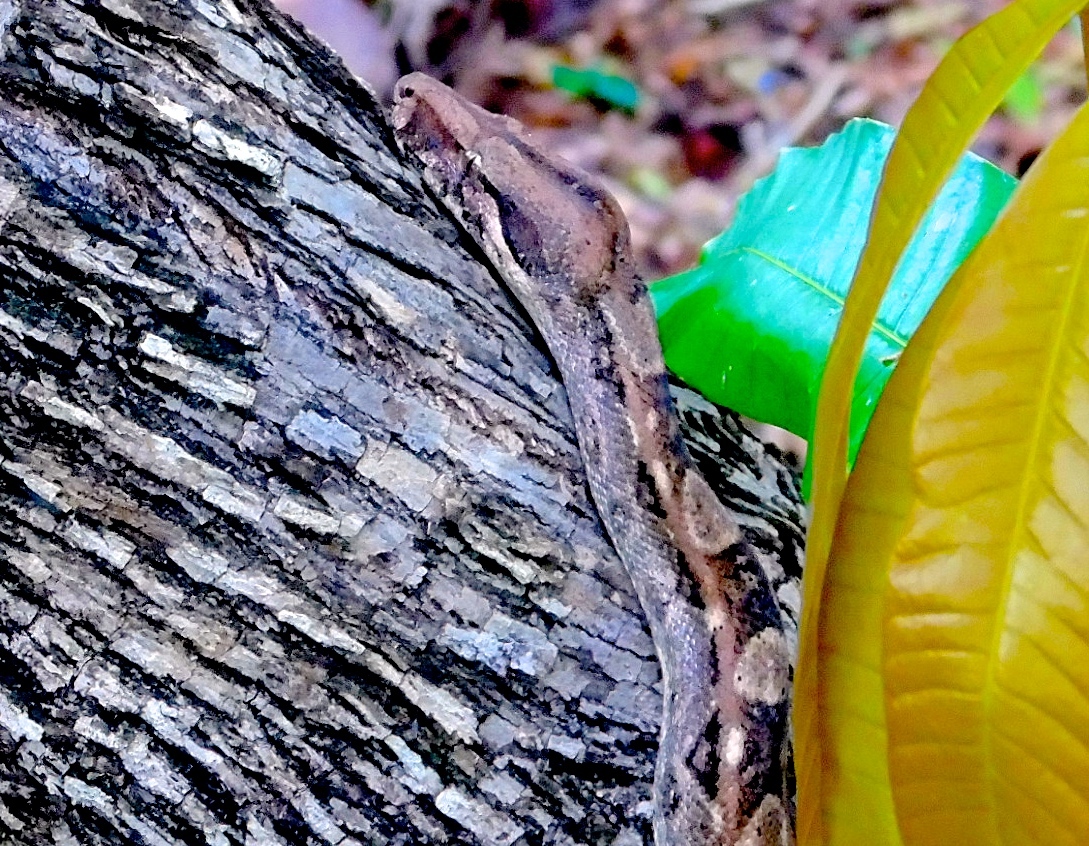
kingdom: Animalia
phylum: Chordata
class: Squamata
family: Boidae
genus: Boa
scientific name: Boa
